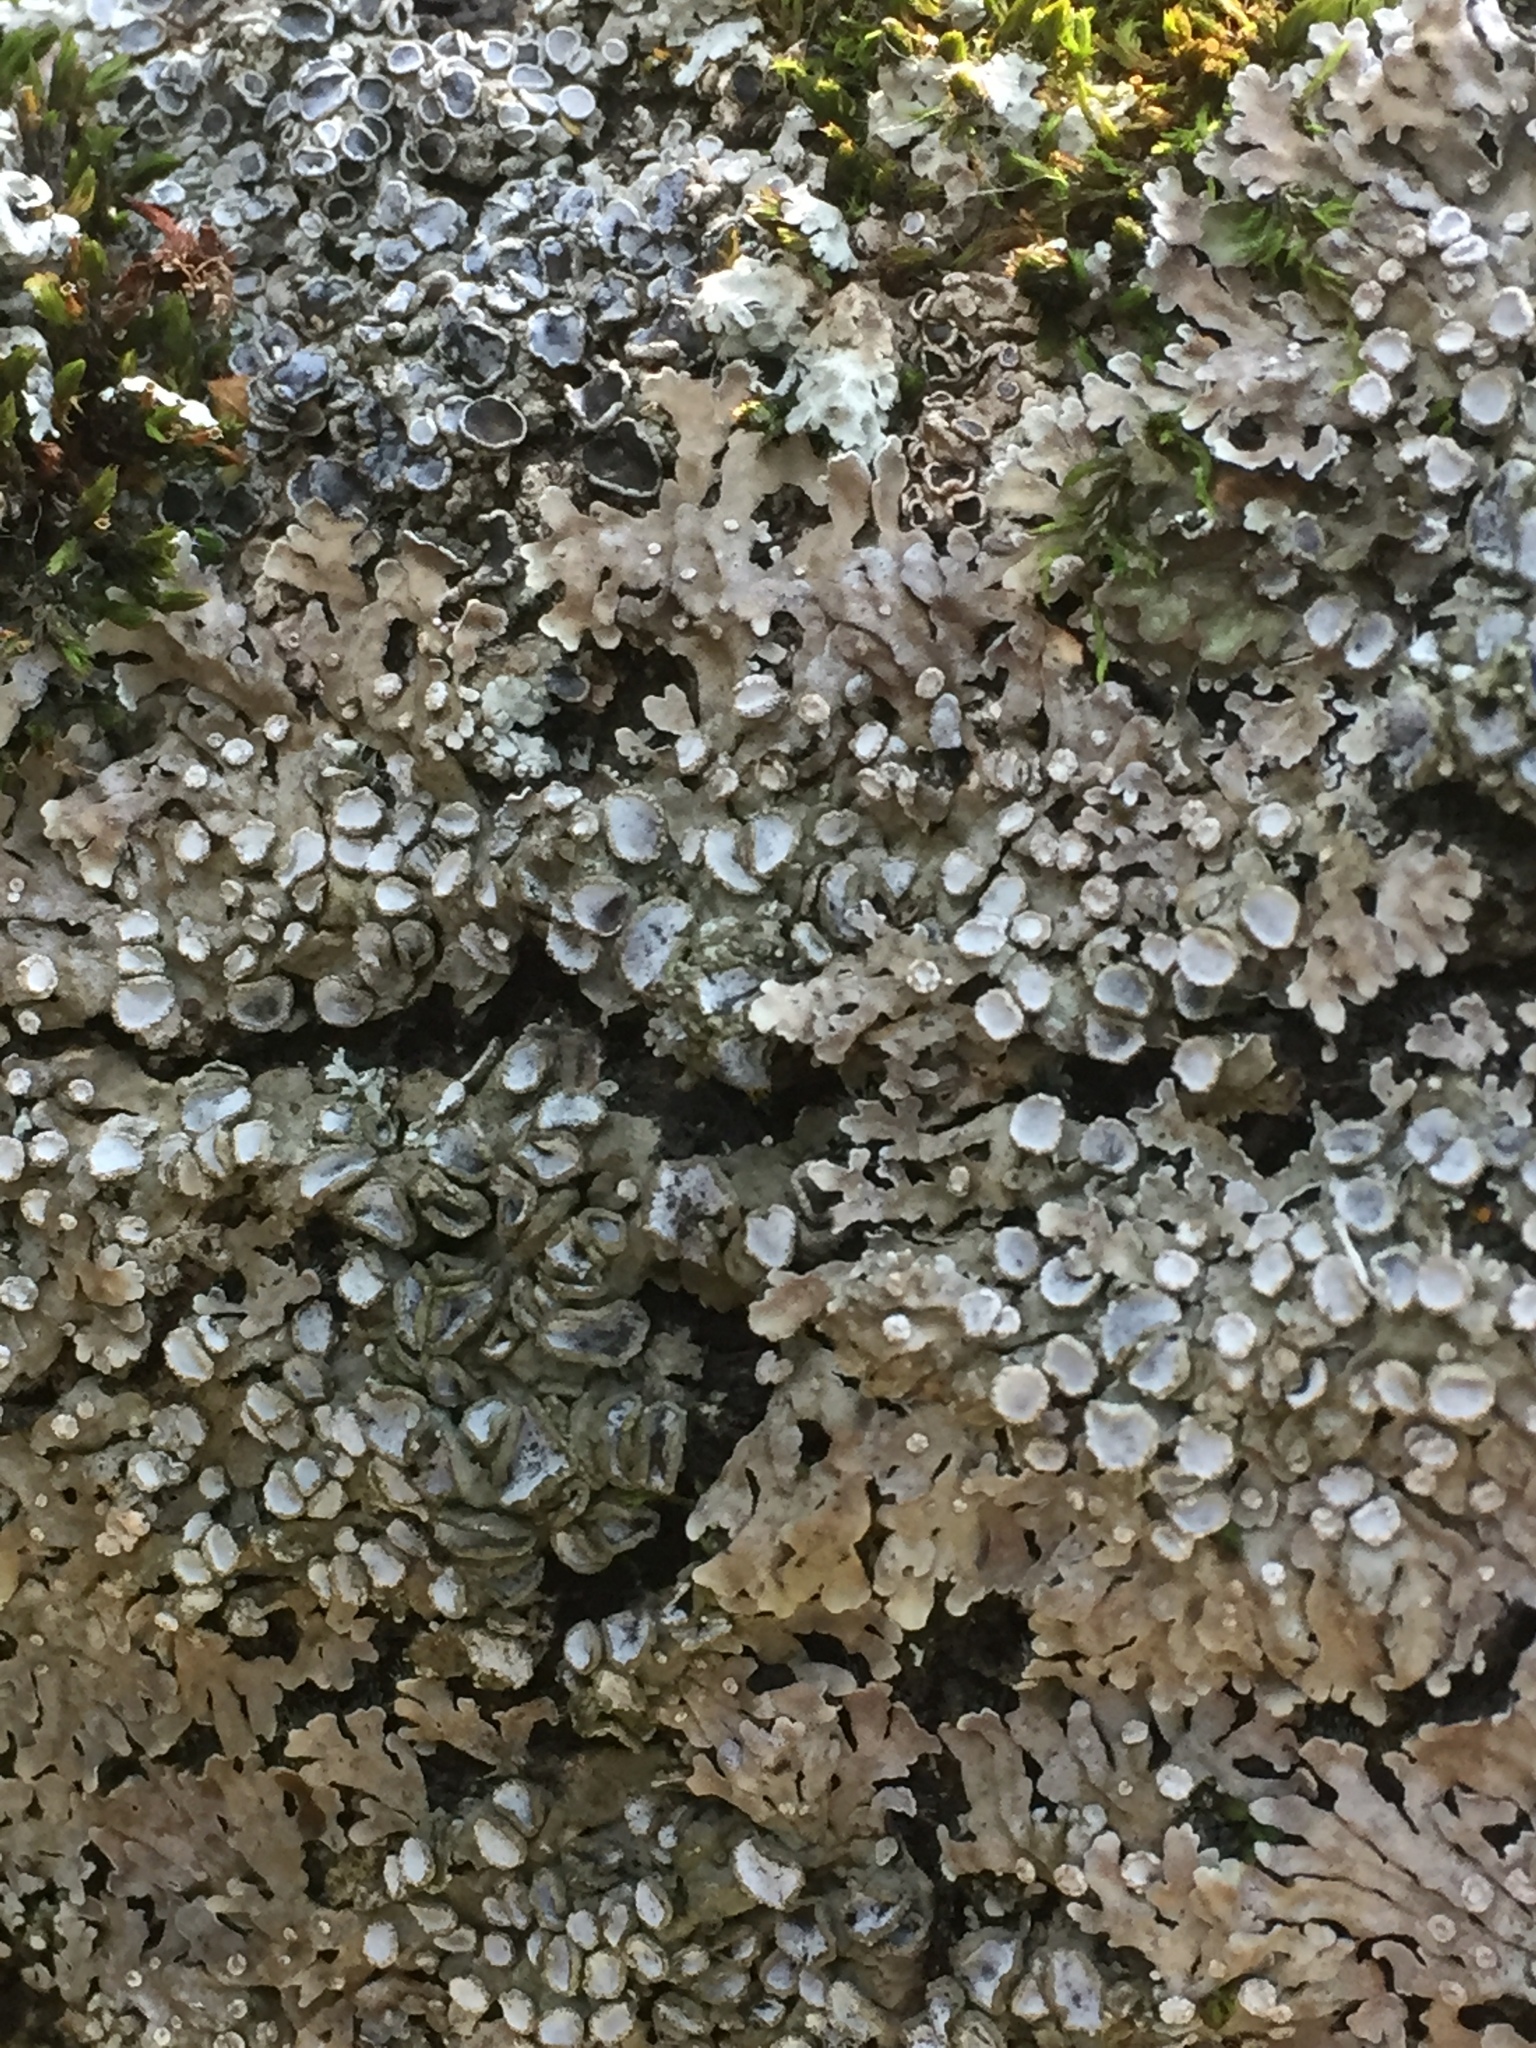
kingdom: Fungi
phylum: Ascomycota
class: Lecanoromycetes
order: Caliciales
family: Physciaceae
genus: Physconia
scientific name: Physconia distorta
